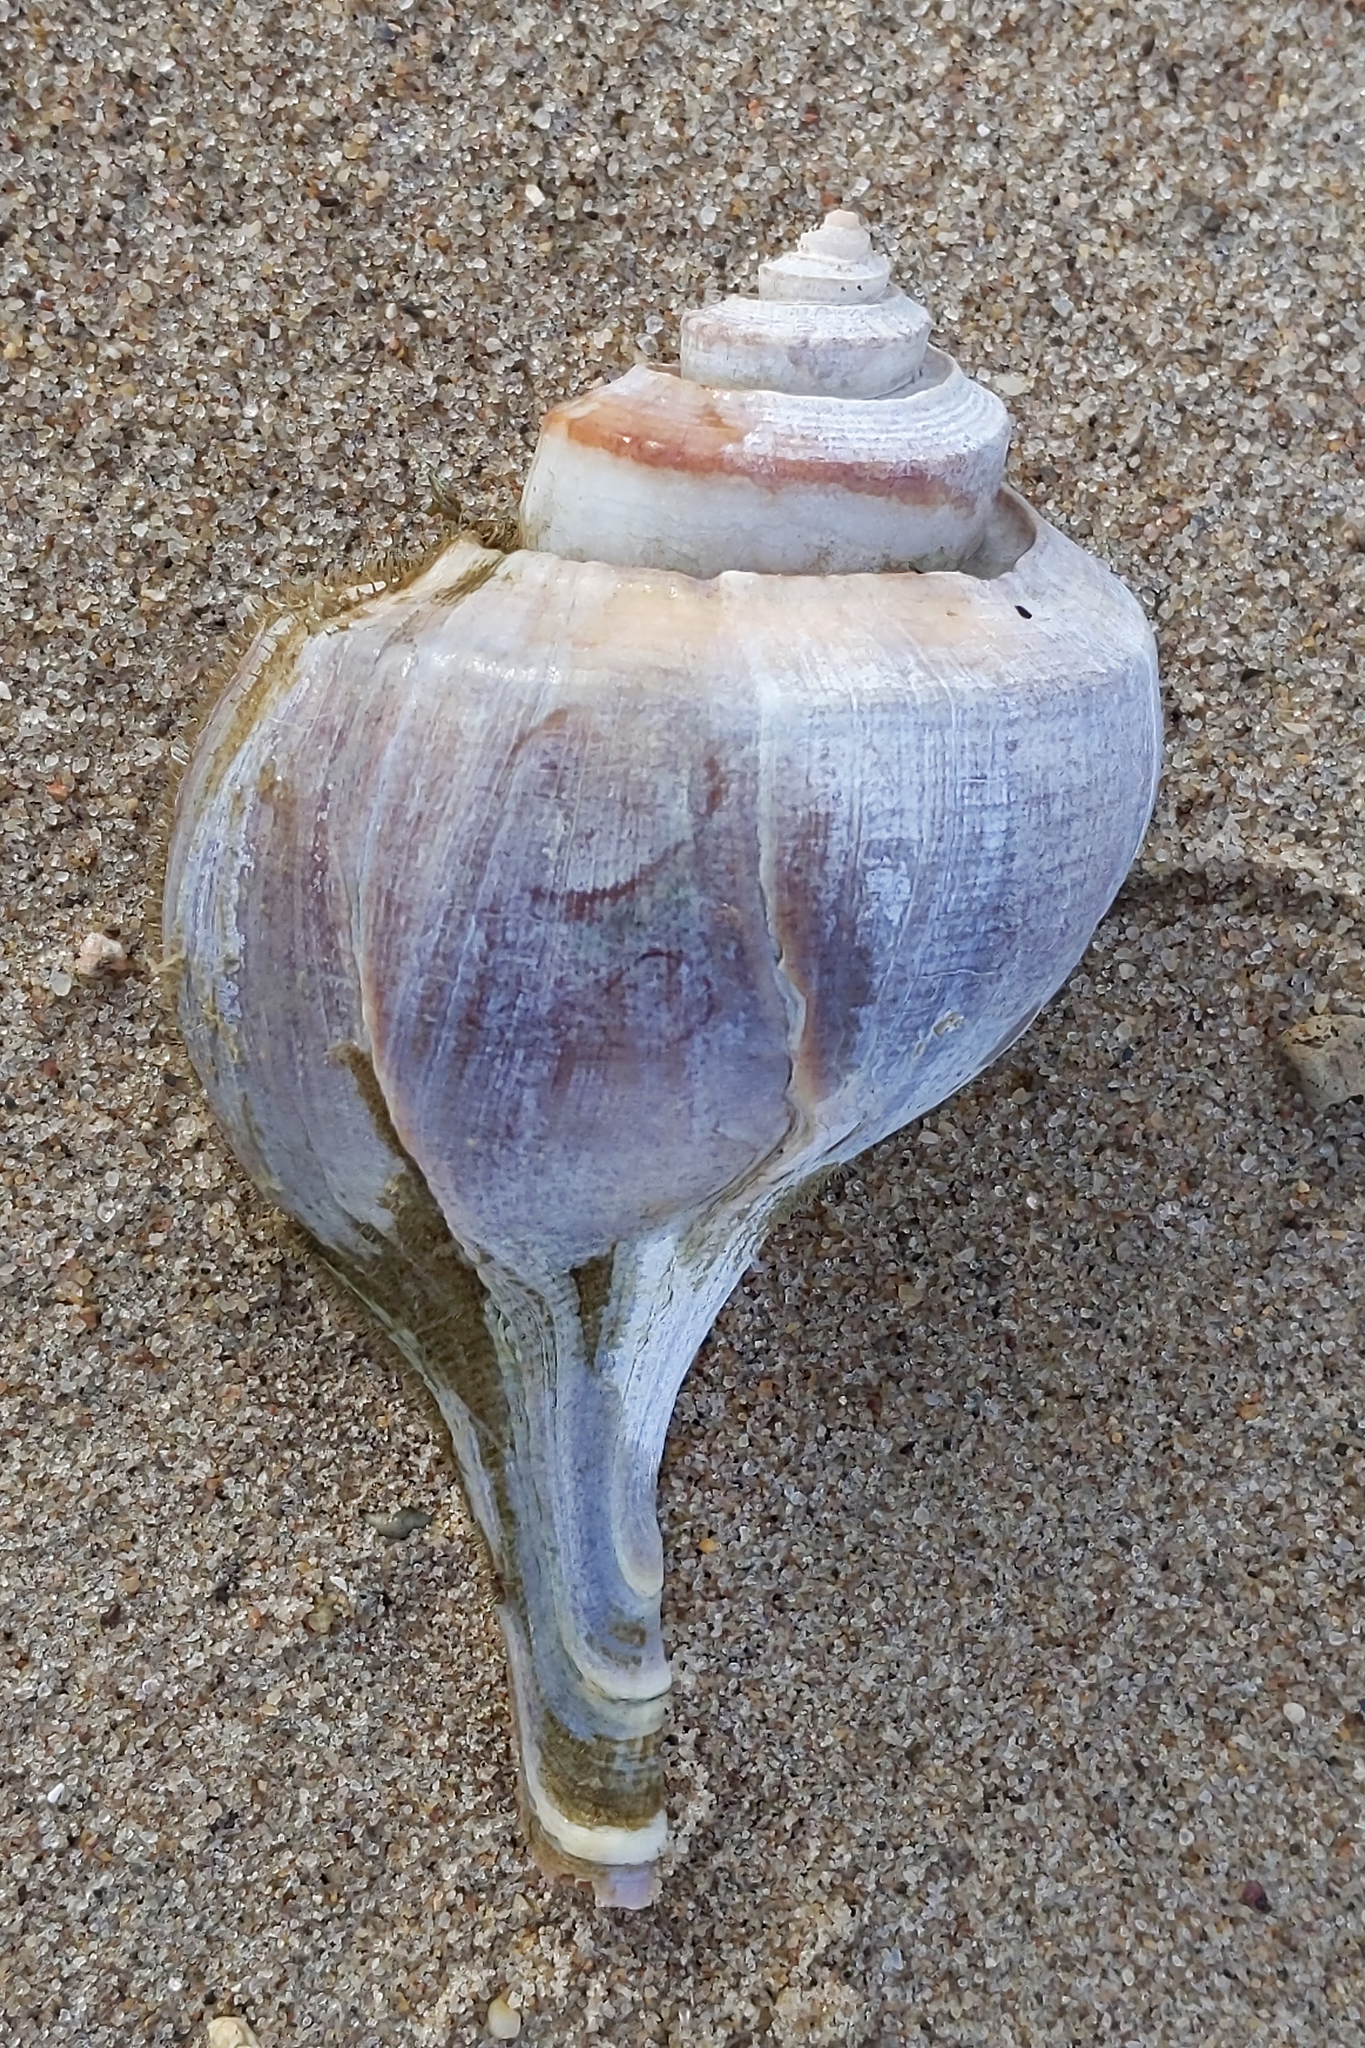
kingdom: Animalia
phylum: Mollusca
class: Gastropoda
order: Neogastropoda
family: Busyconidae
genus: Busycotypus
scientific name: Busycotypus canaliculatus
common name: Channeled whelk
